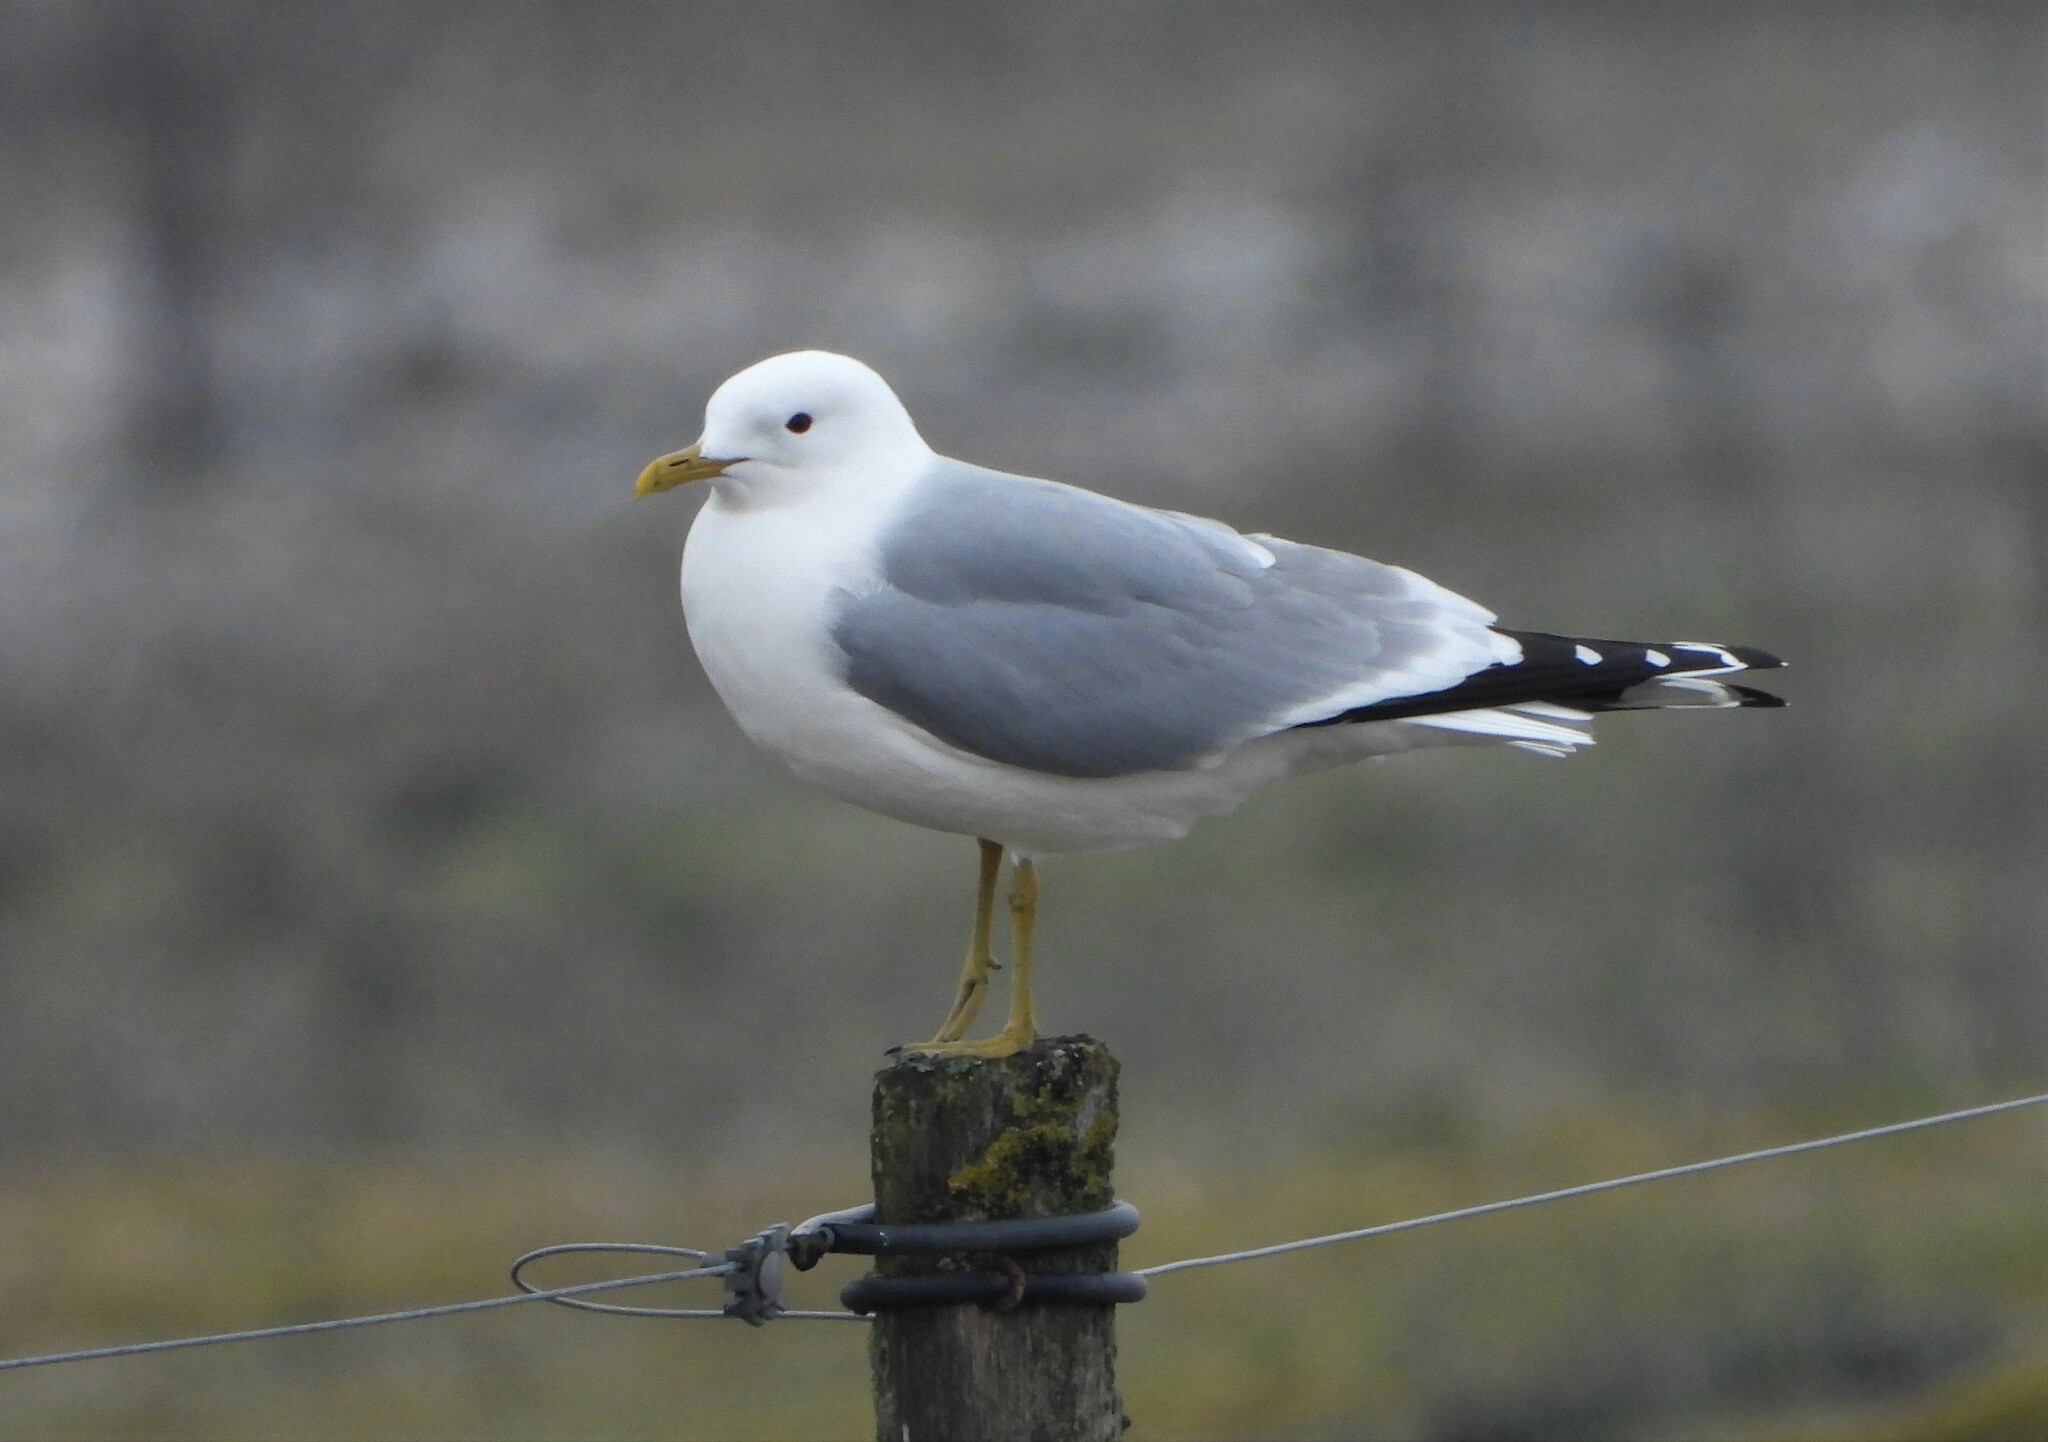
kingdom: Animalia
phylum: Chordata
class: Aves
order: Charadriiformes
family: Laridae
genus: Larus
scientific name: Larus canus
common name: Mew gull
